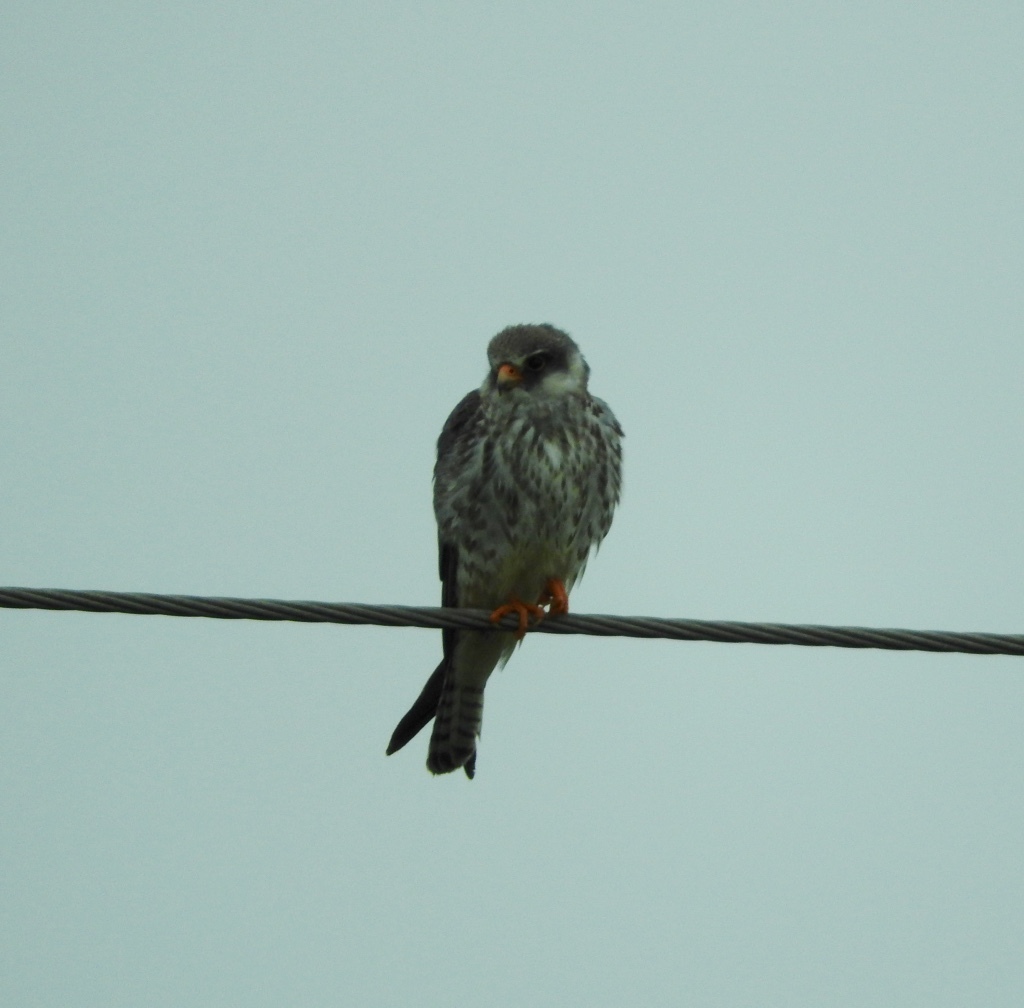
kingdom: Animalia
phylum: Chordata
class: Aves
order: Falconiformes
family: Falconidae
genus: Falco
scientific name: Falco amurensis
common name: Amur falcon
